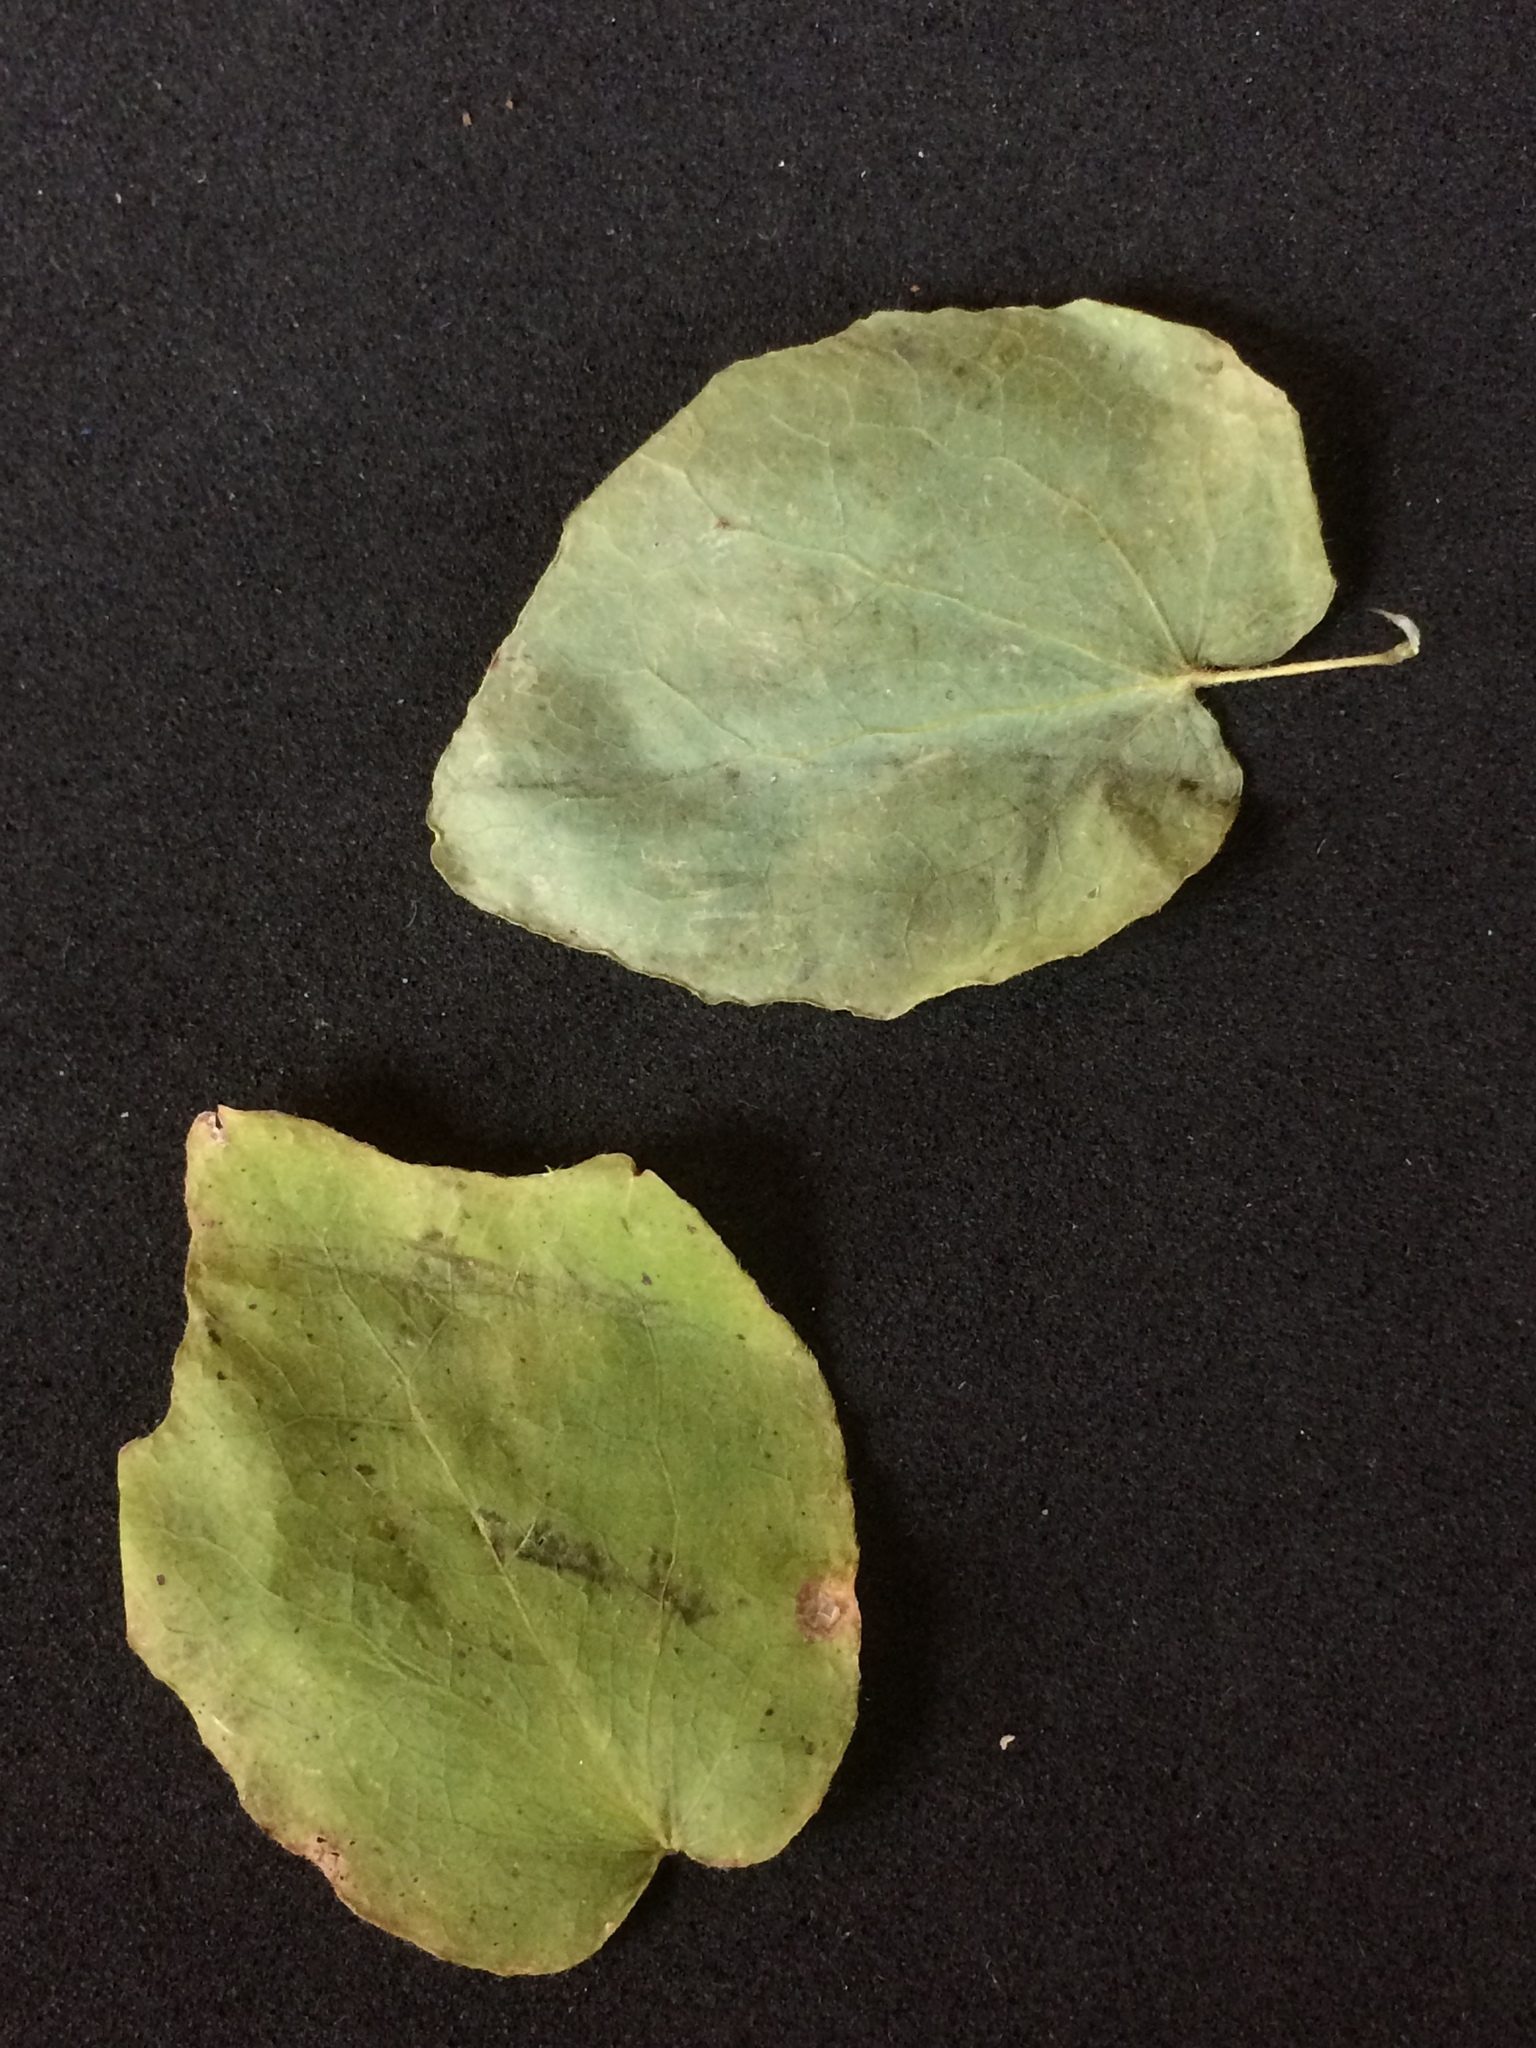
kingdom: Plantae
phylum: Tracheophyta
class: Magnoliopsida
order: Ranunculales
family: Berberidaceae
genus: Vancouveria
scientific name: Vancouveria hexandra
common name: Northern inside-out-flower
